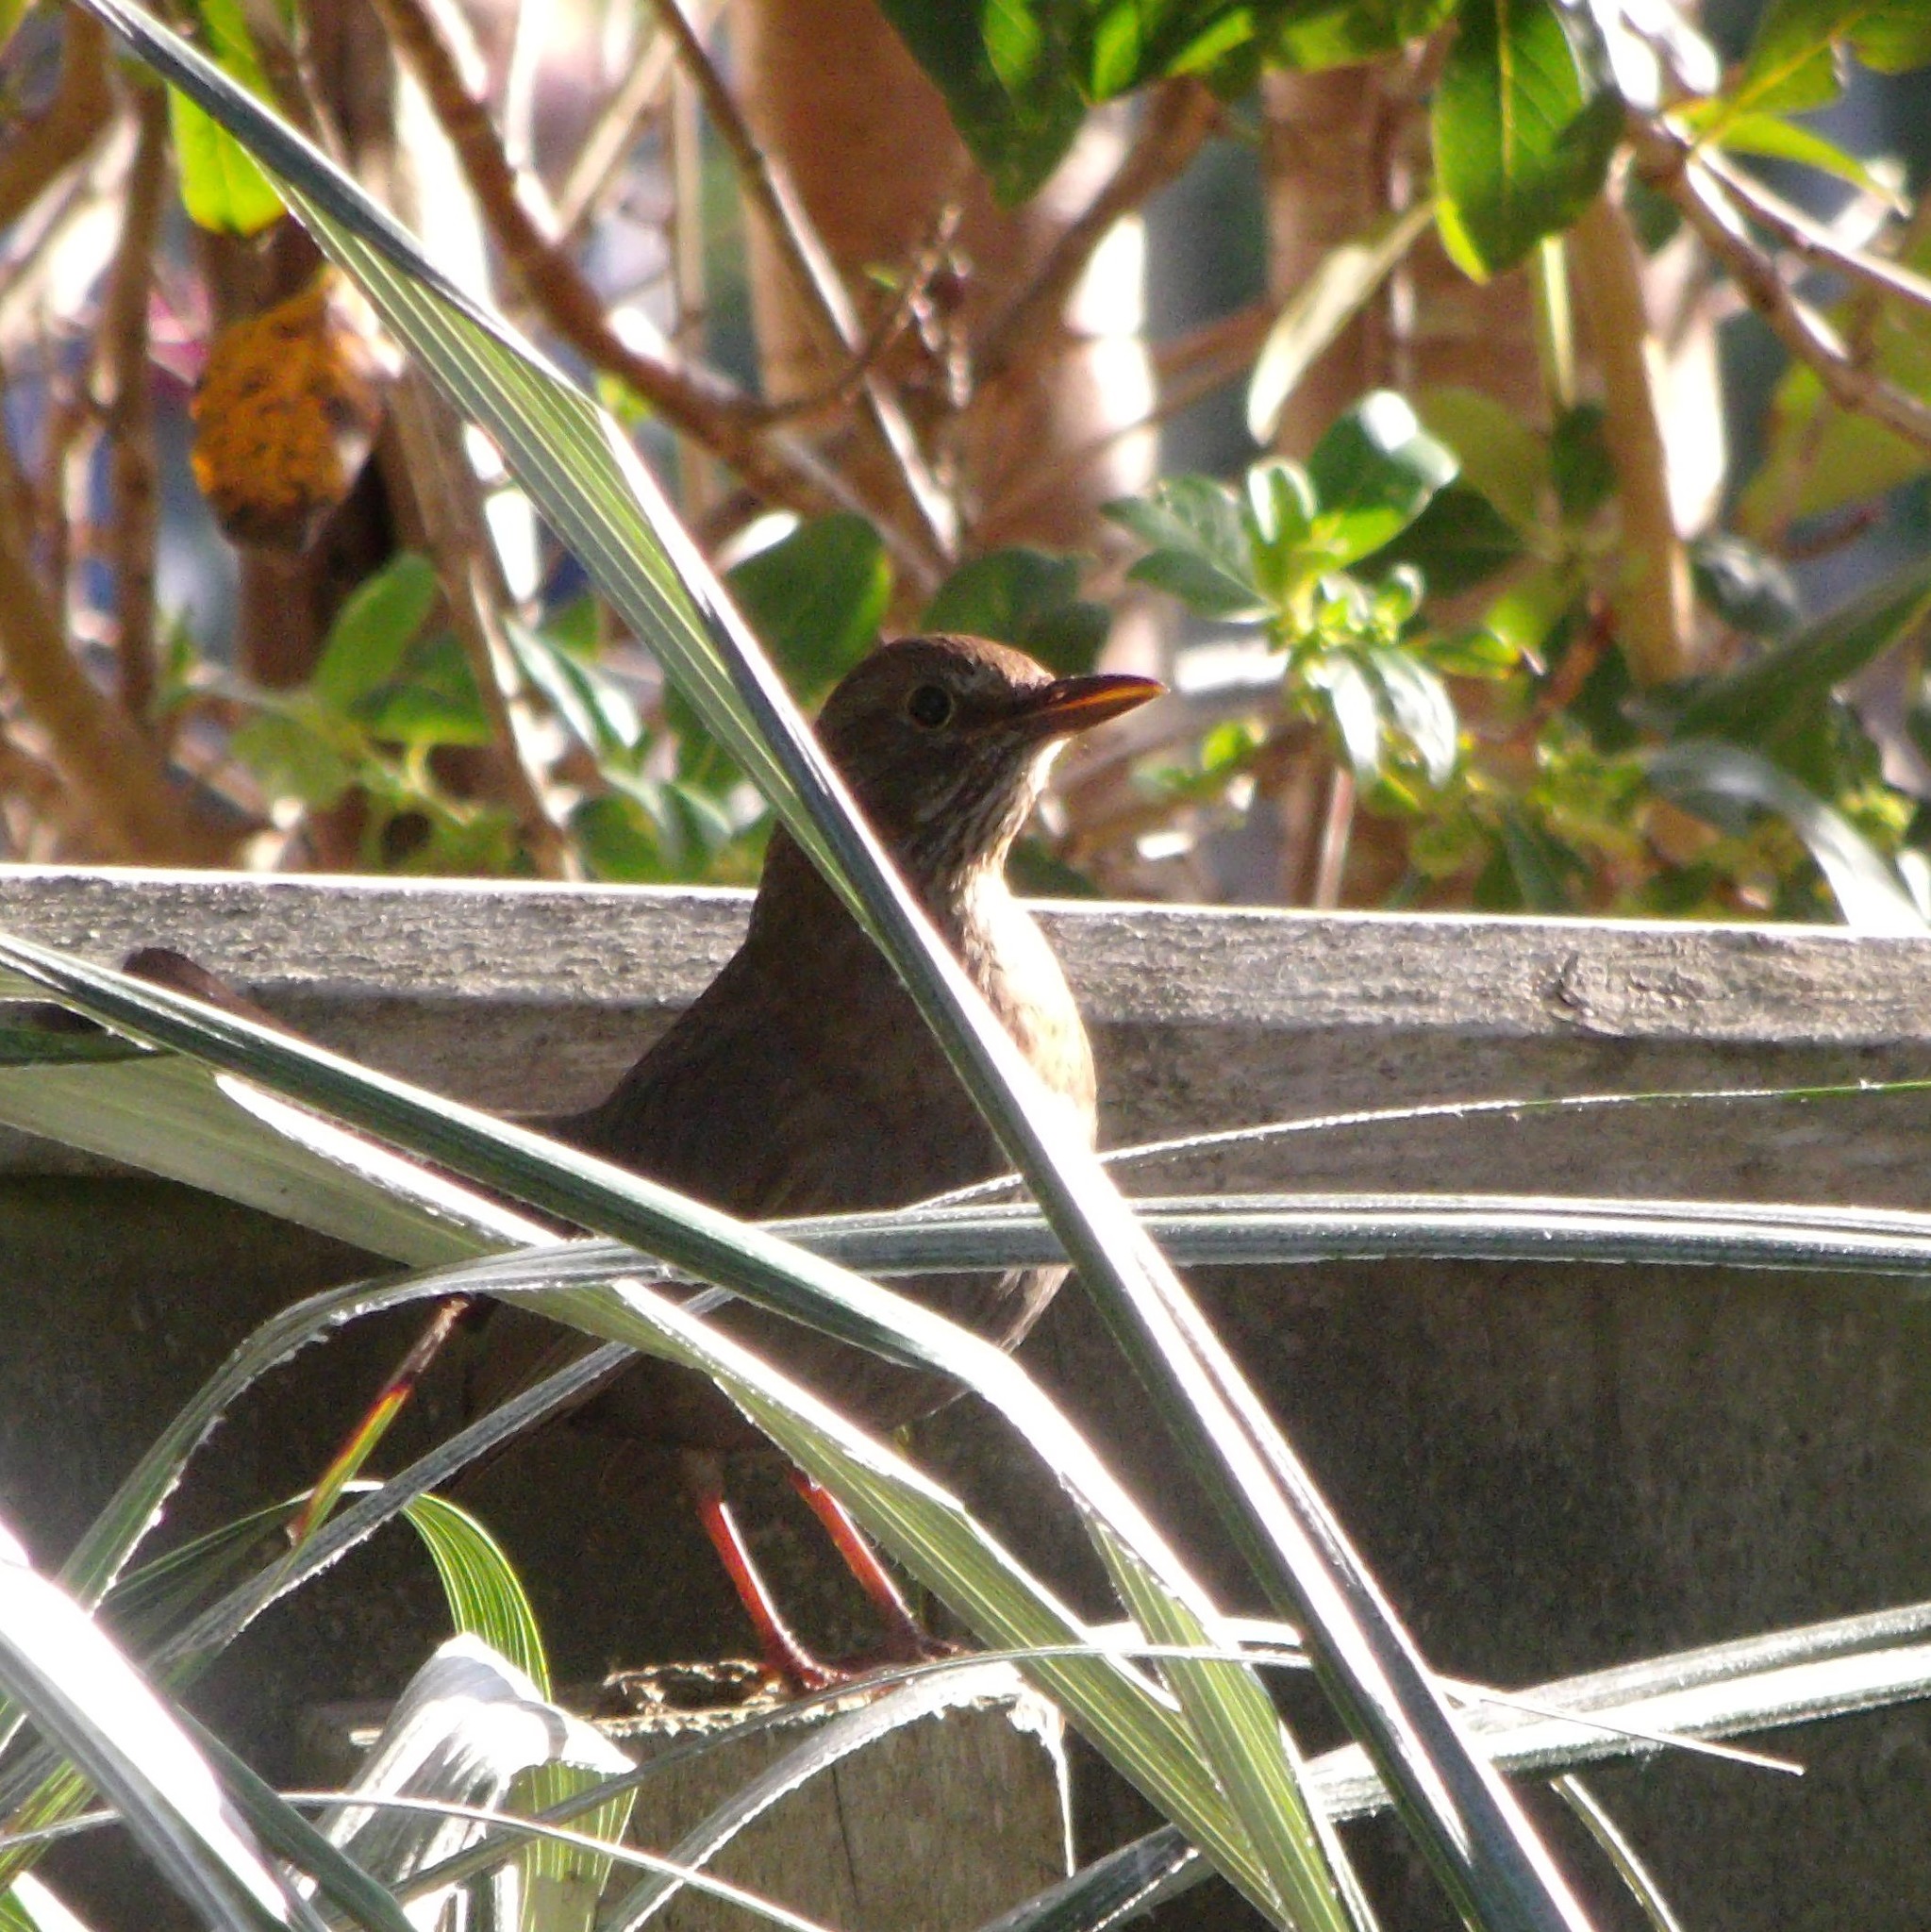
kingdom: Animalia
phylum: Chordata
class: Aves
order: Passeriformes
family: Turdidae
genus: Turdus
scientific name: Turdus merula
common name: Common blackbird
